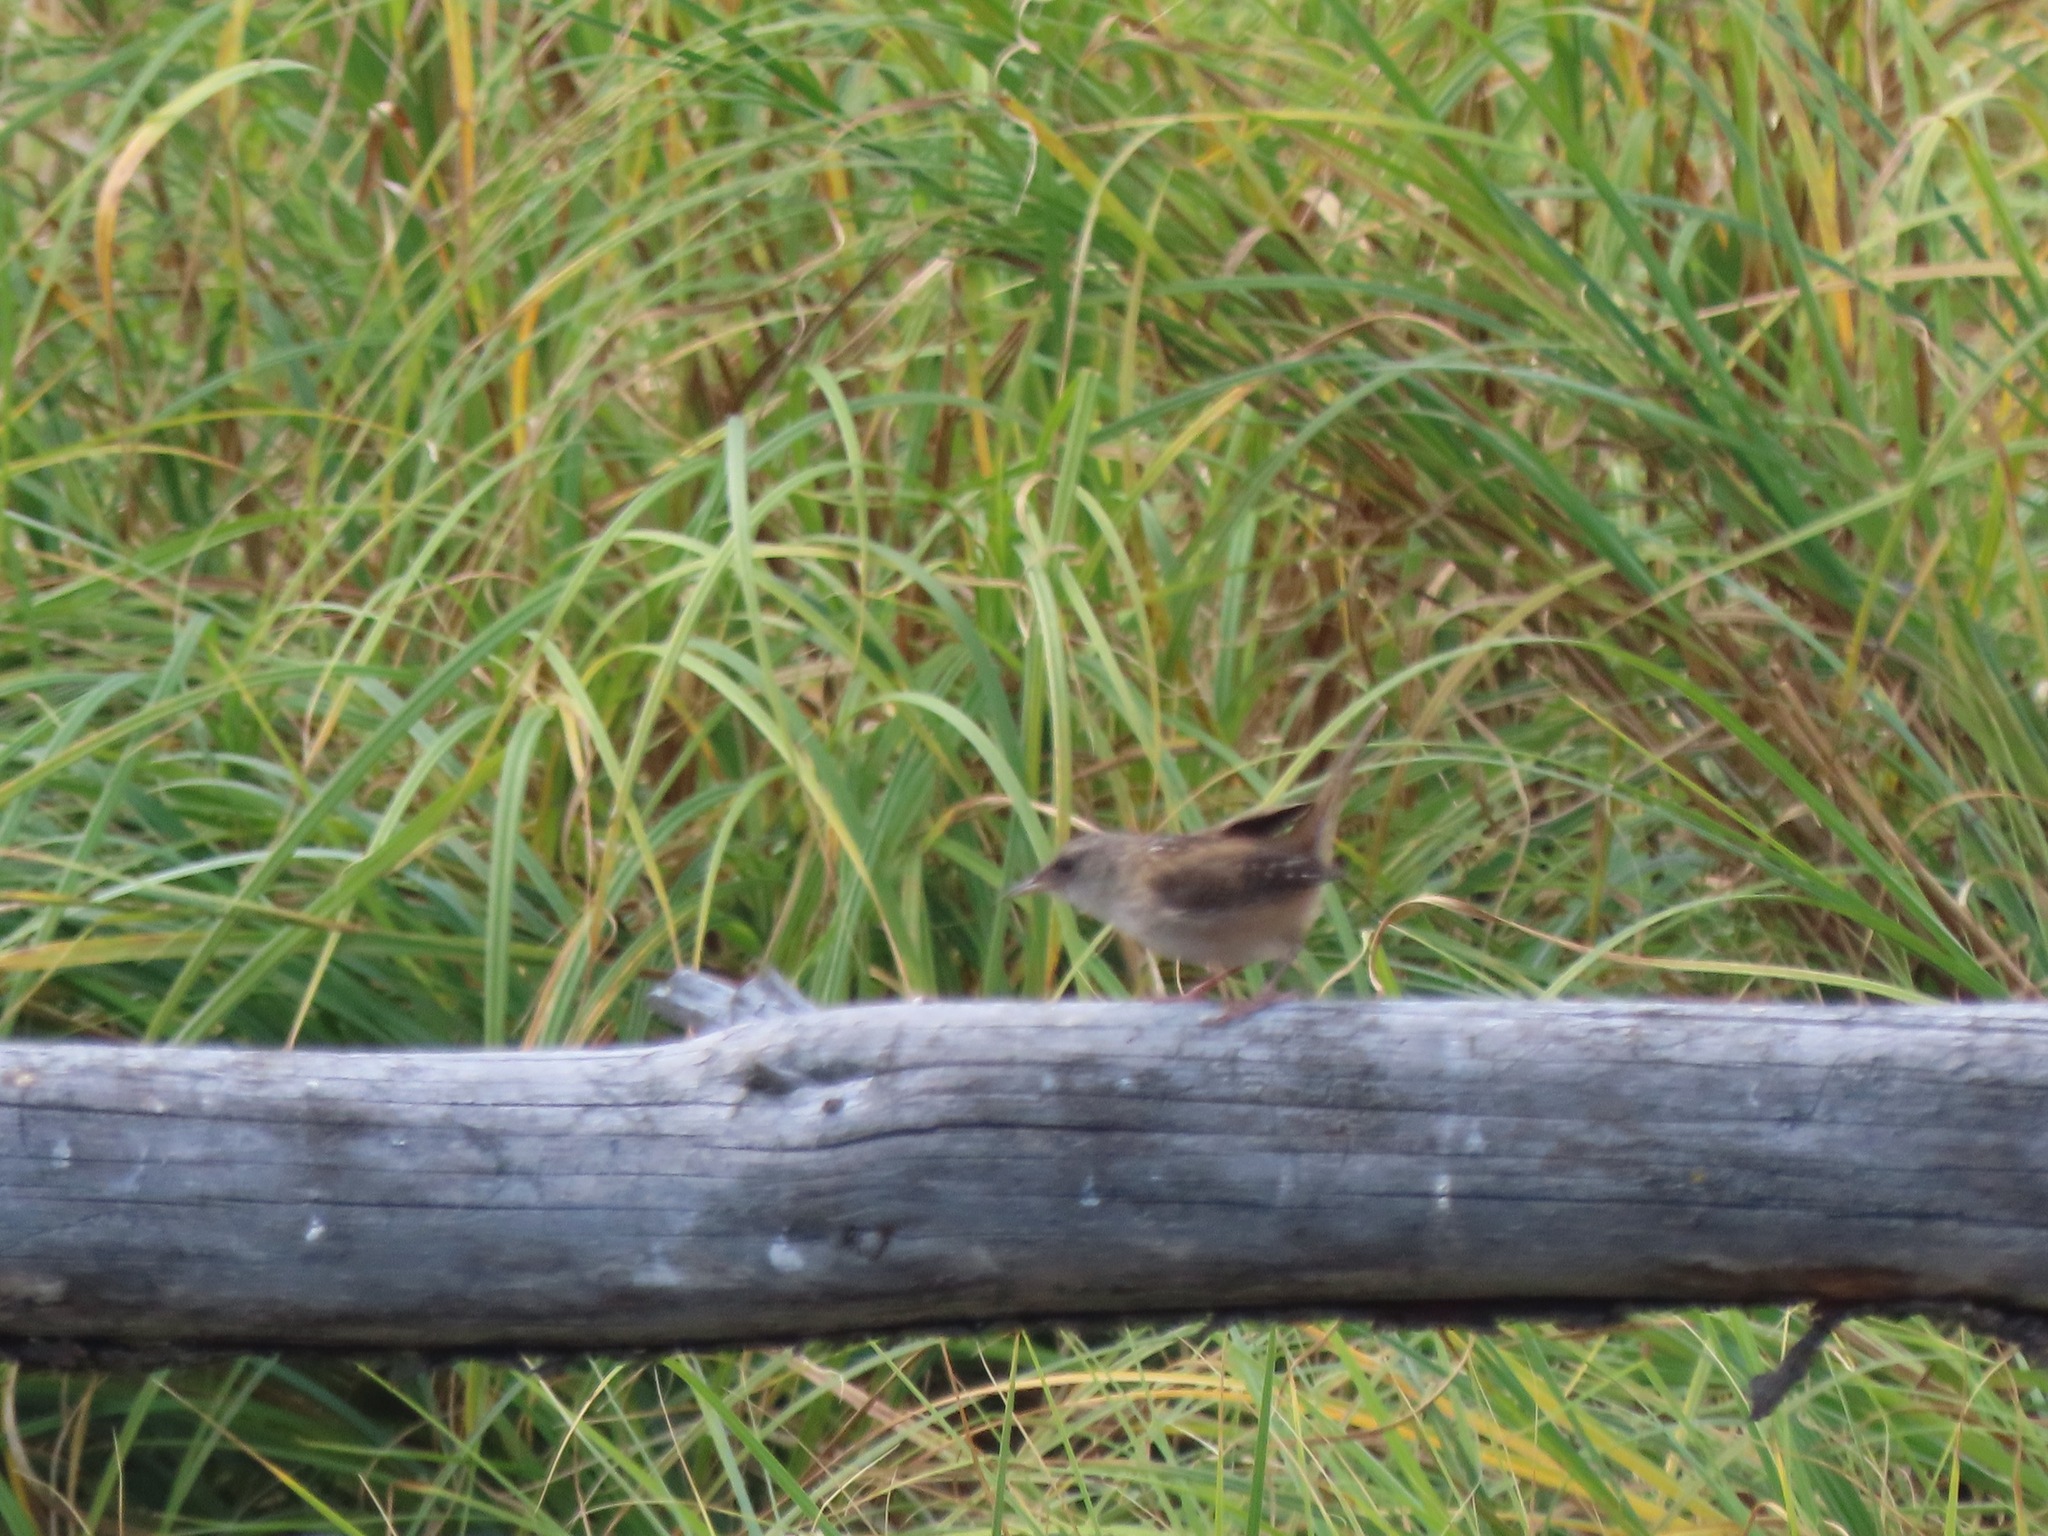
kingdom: Animalia
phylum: Chordata
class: Aves
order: Passeriformes
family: Troglodytidae
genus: Cistothorus
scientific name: Cistothorus palustris
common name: Marsh wren
